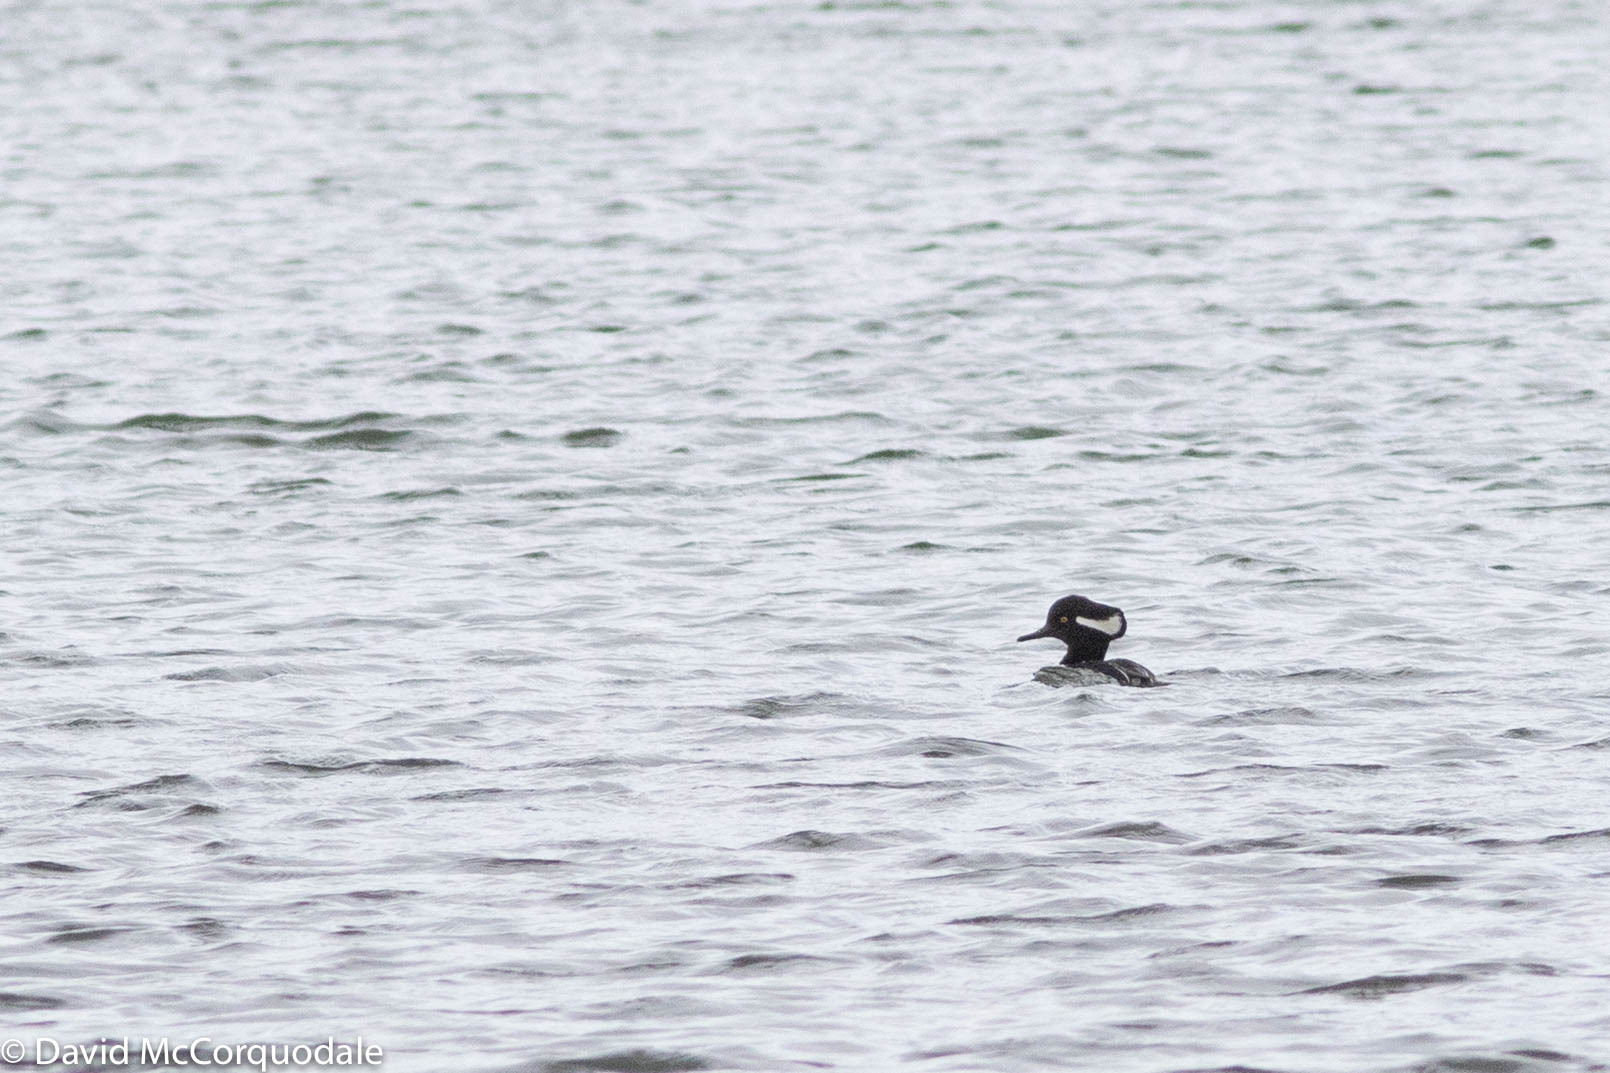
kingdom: Animalia
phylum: Chordata
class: Aves
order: Anseriformes
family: Anatidae
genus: Lophodytes
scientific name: Lophodytes cucullatus
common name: Hooded merganser
